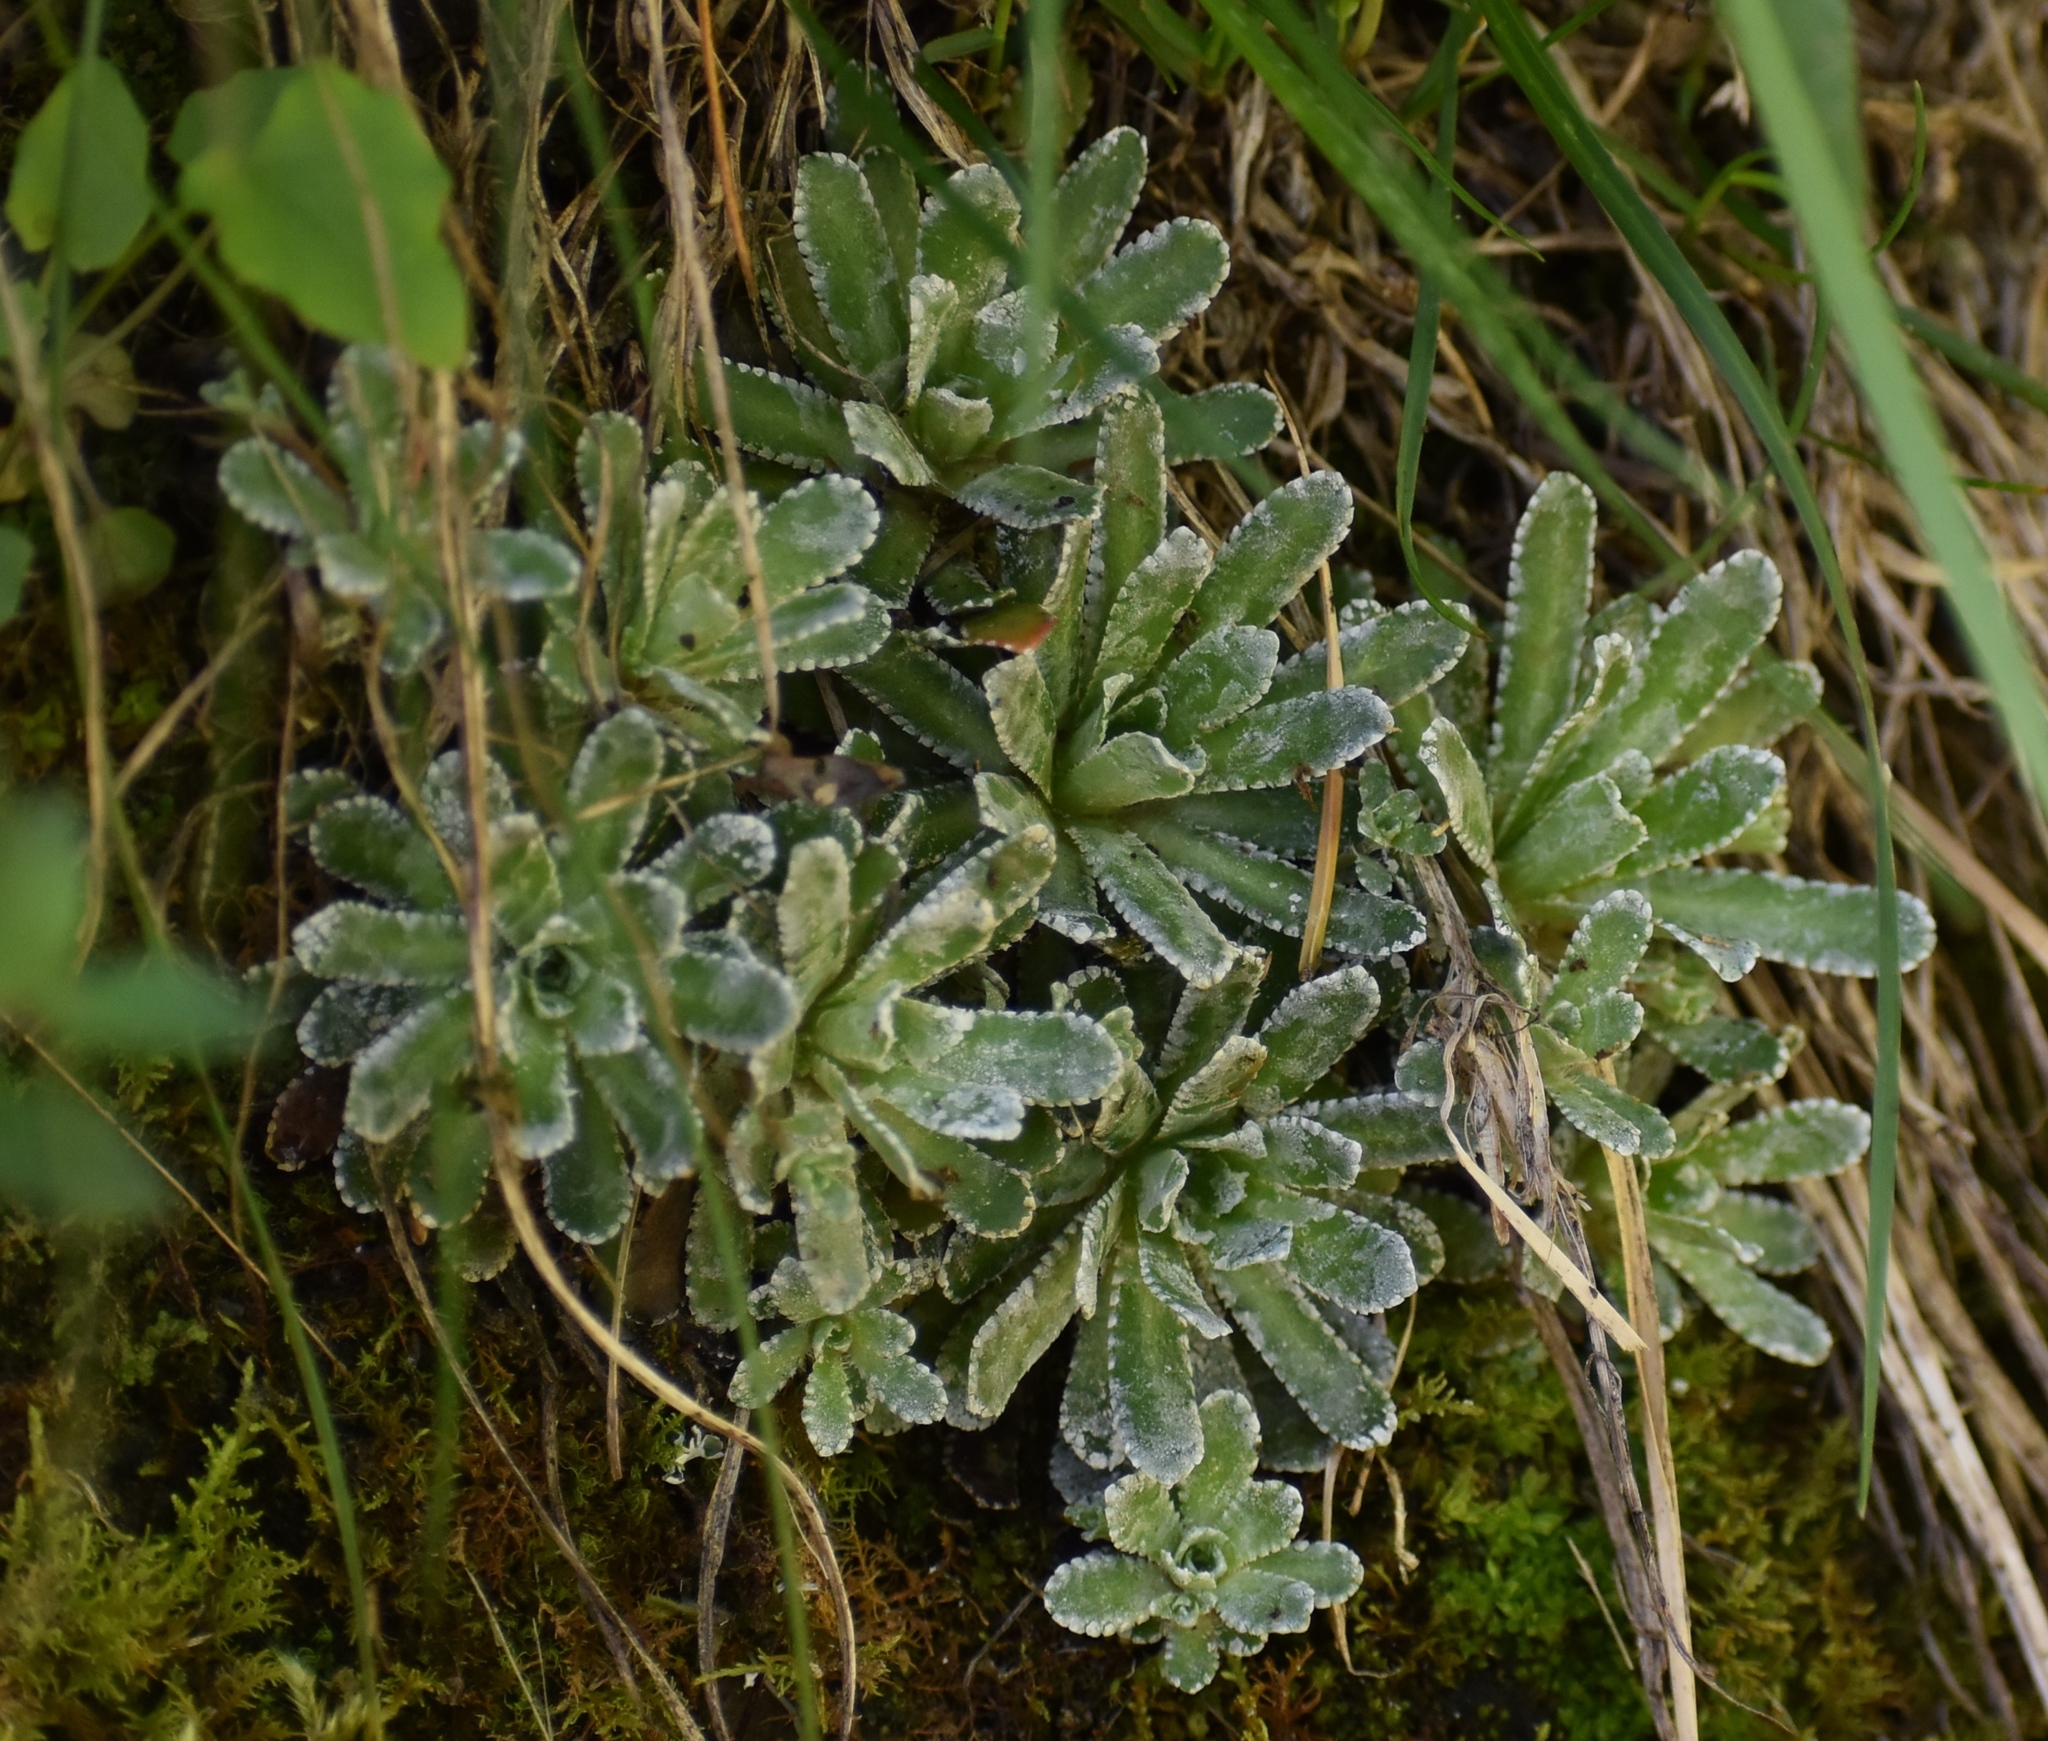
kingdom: Plantae
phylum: Tracheophyta
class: Magnoliopsida
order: Saxifragales
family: Saxifragaceae
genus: Saxifraga
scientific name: Saxifraga paniculata
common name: Livelong saxifrage
